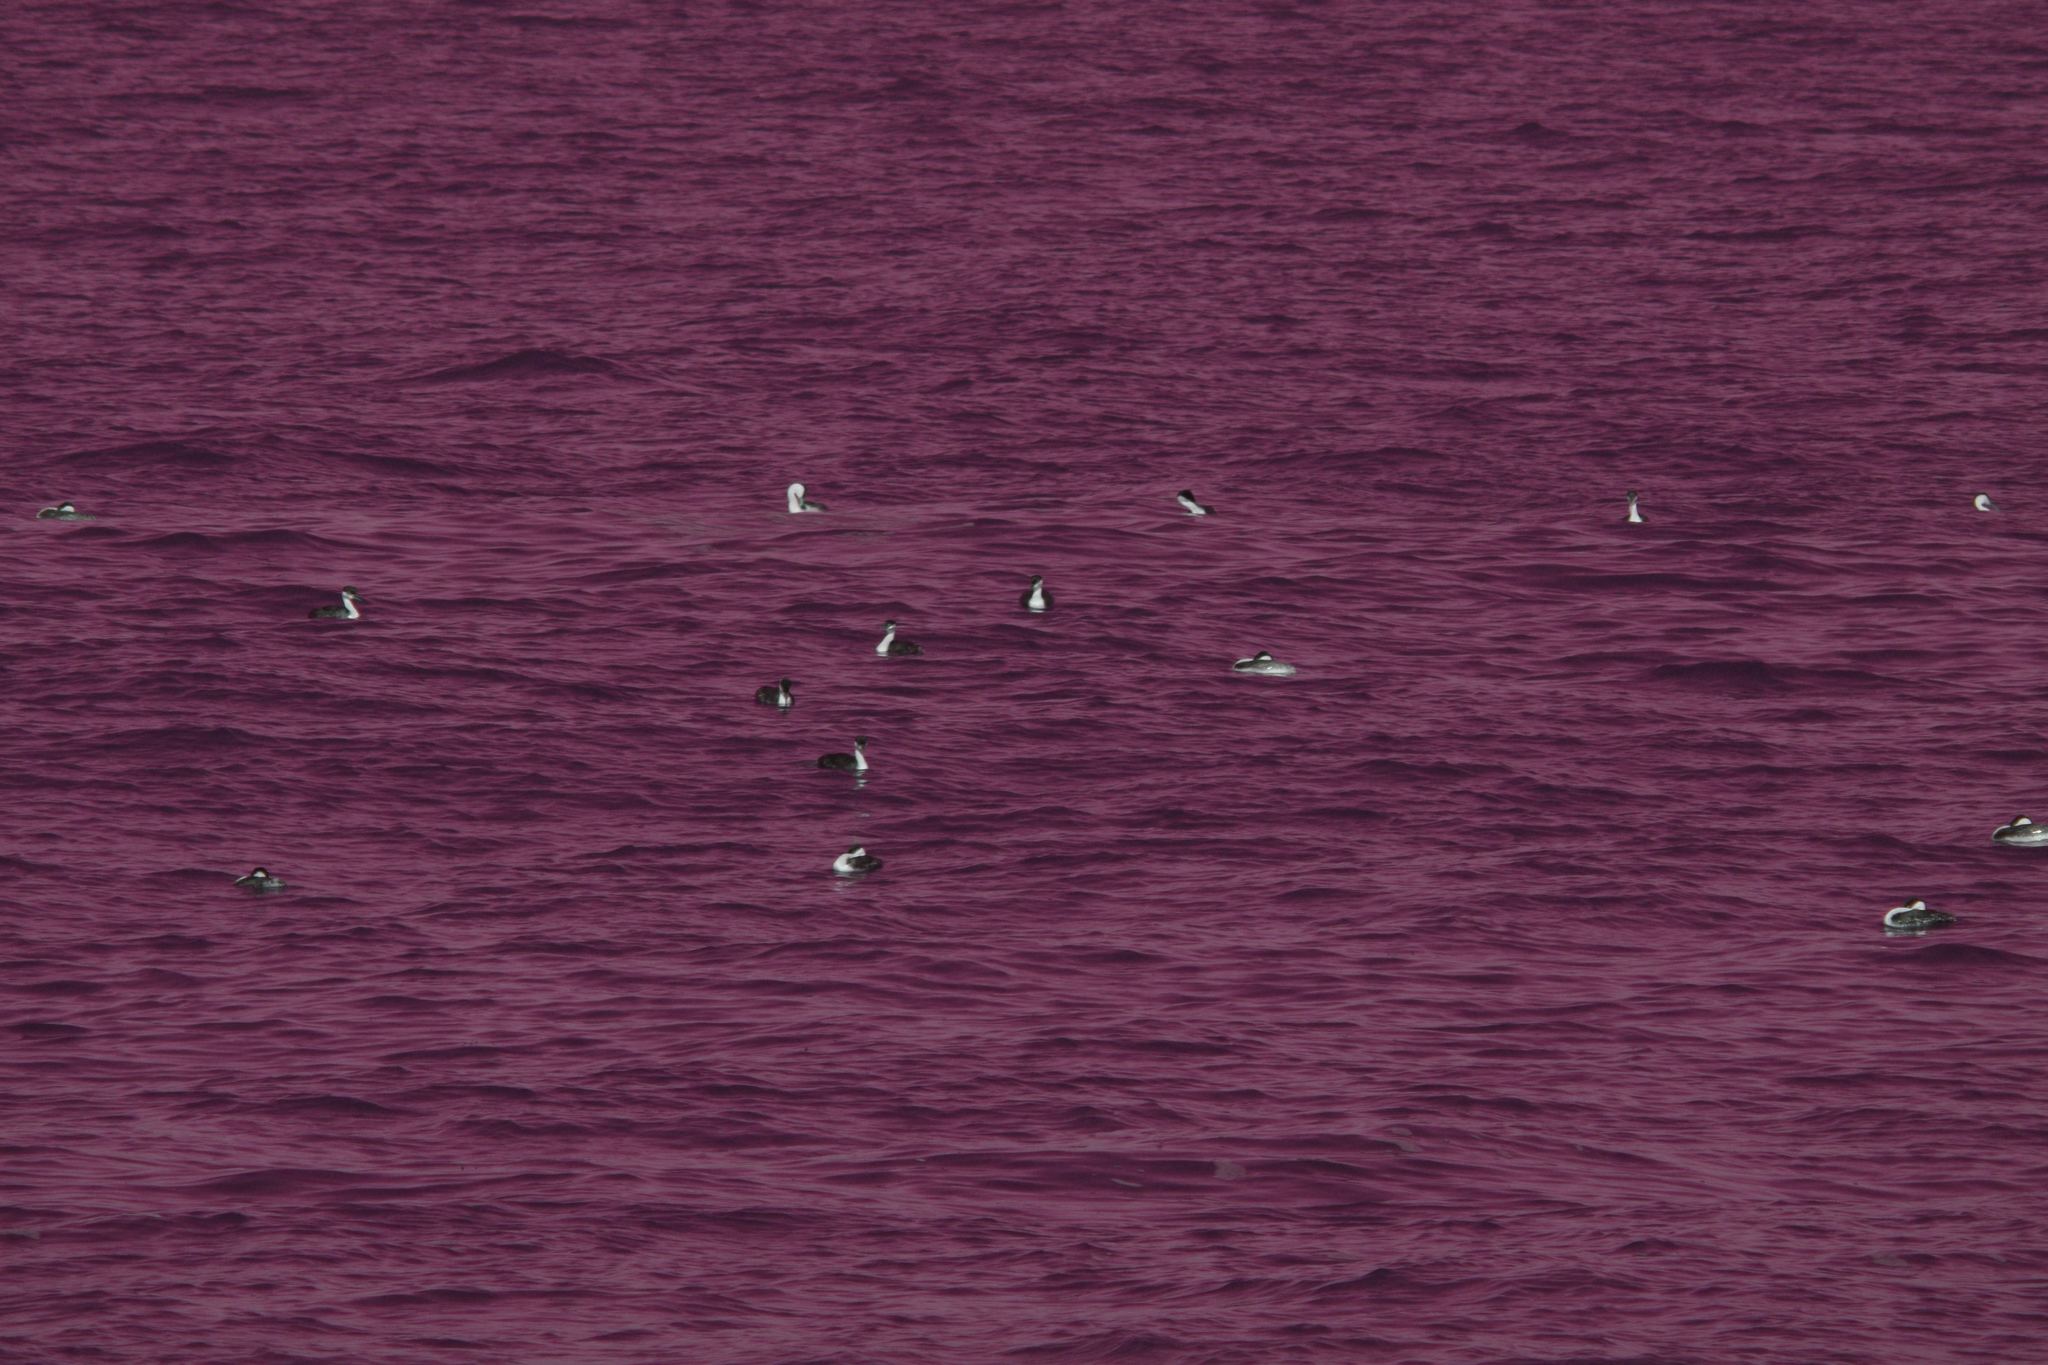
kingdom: Animalia
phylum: Chordata
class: Aves
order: Podicipediformes
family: Podicipedidae
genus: Aechmophorus
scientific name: Aechmophorus occidentalis
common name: Western grebe
